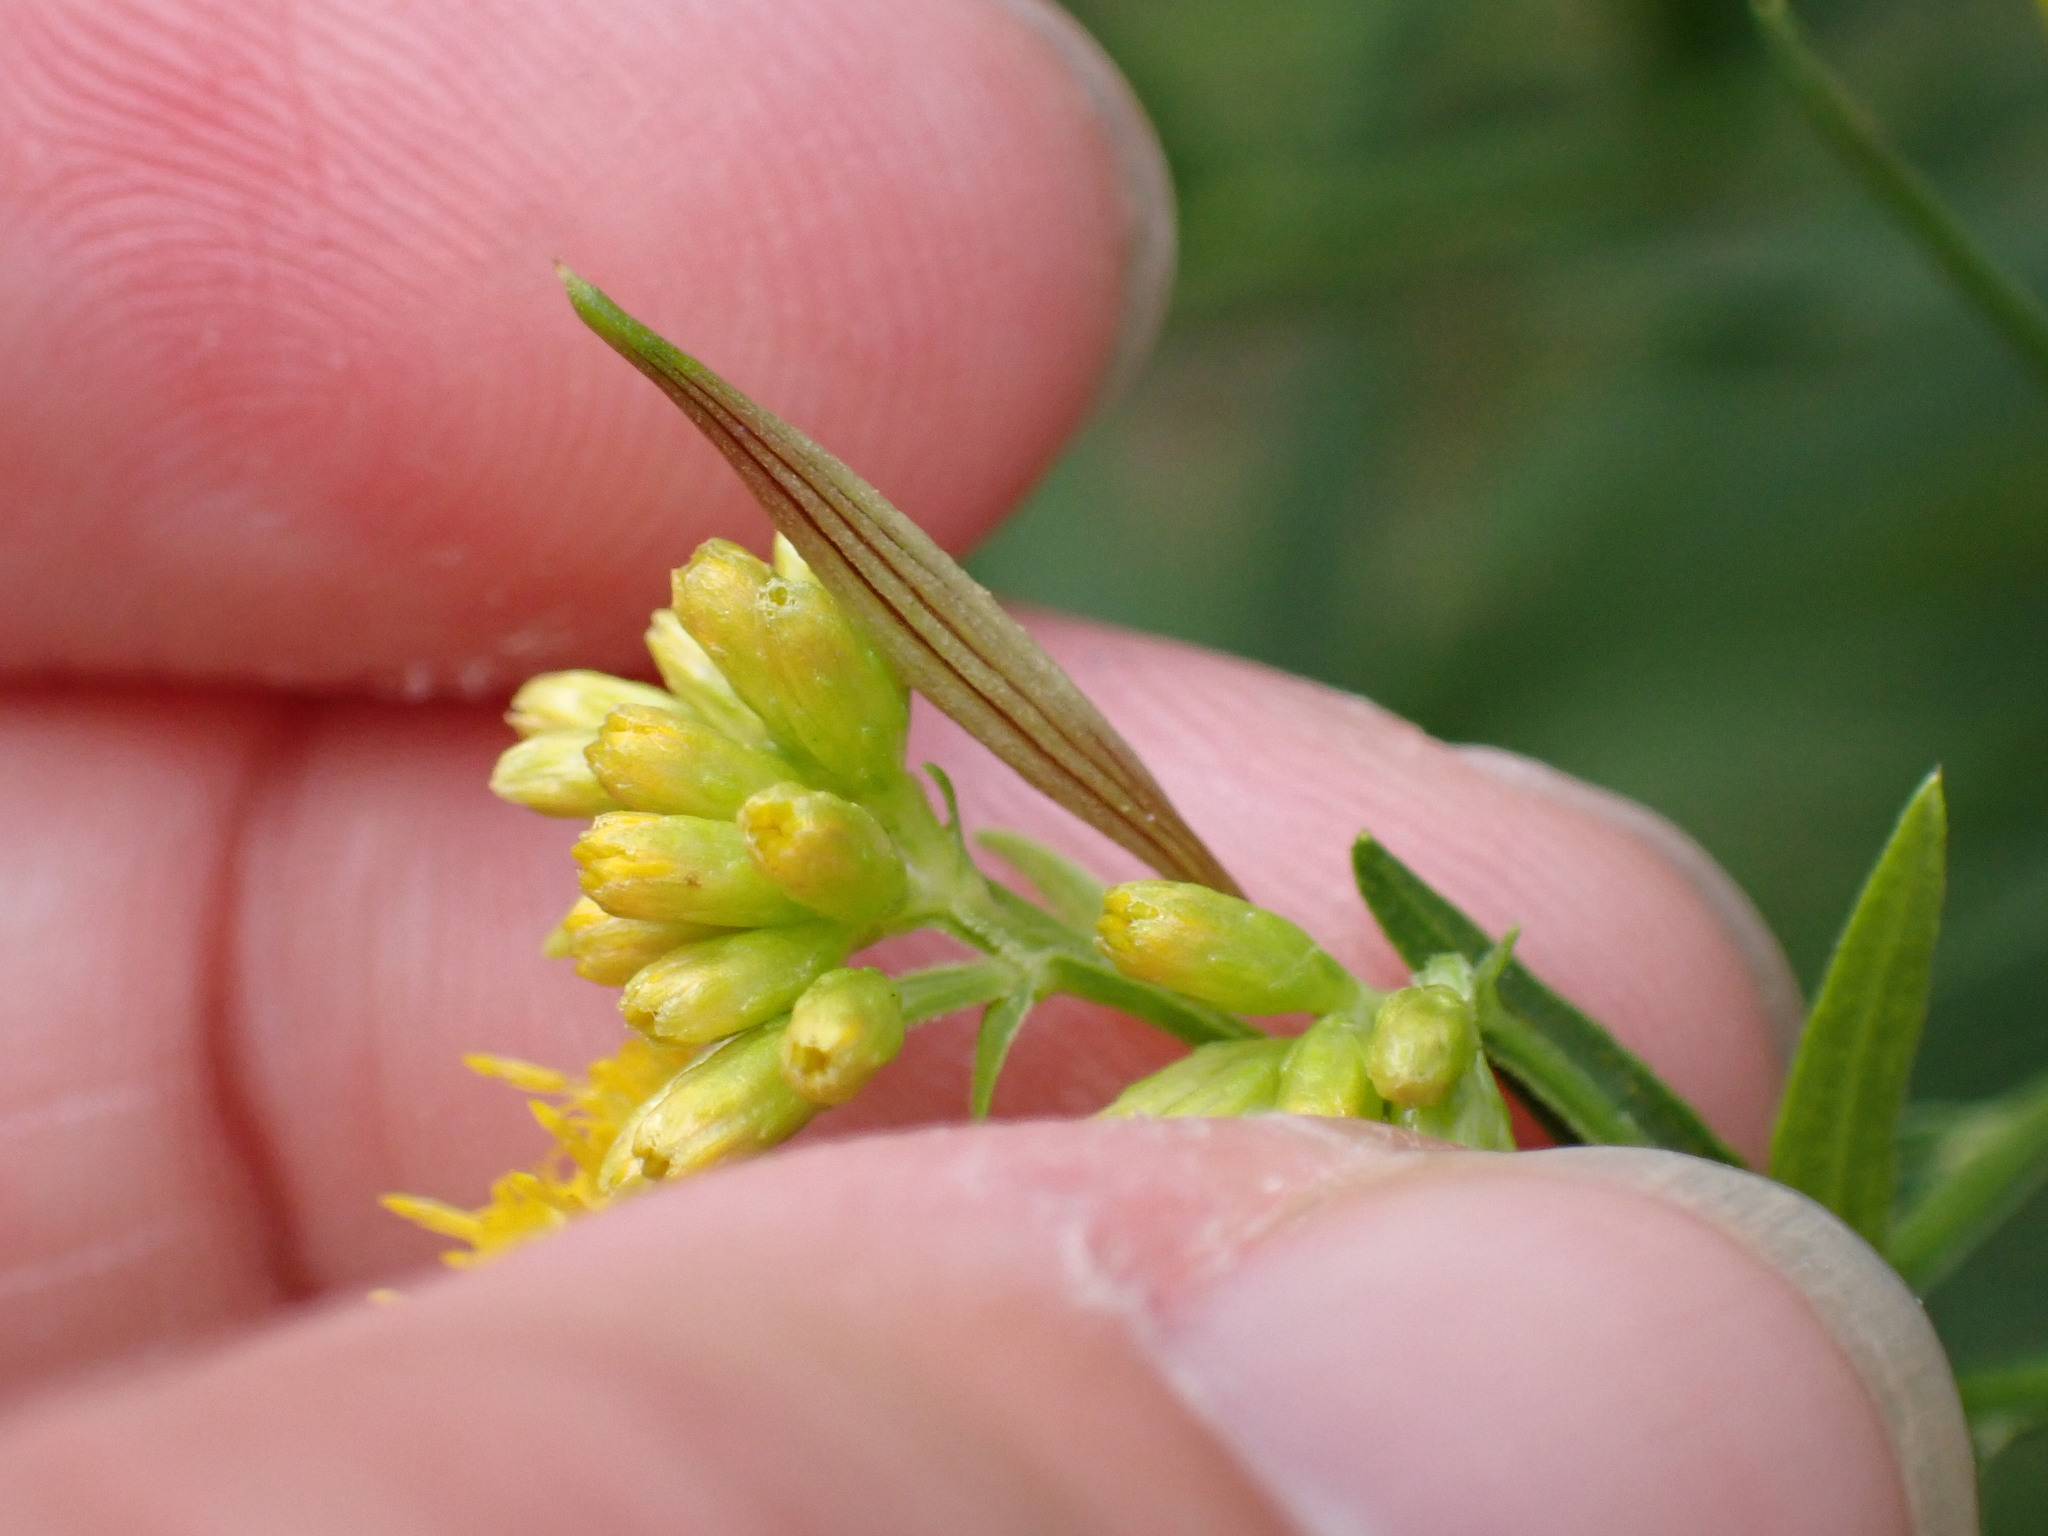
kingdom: Animalia
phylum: Arthropoda
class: Insecta
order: Diptera
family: Cecidomyiidae
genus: Rhopalomyia
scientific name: Rhopalomyia pedicellata
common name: Goldentop pedicellate gall midge
